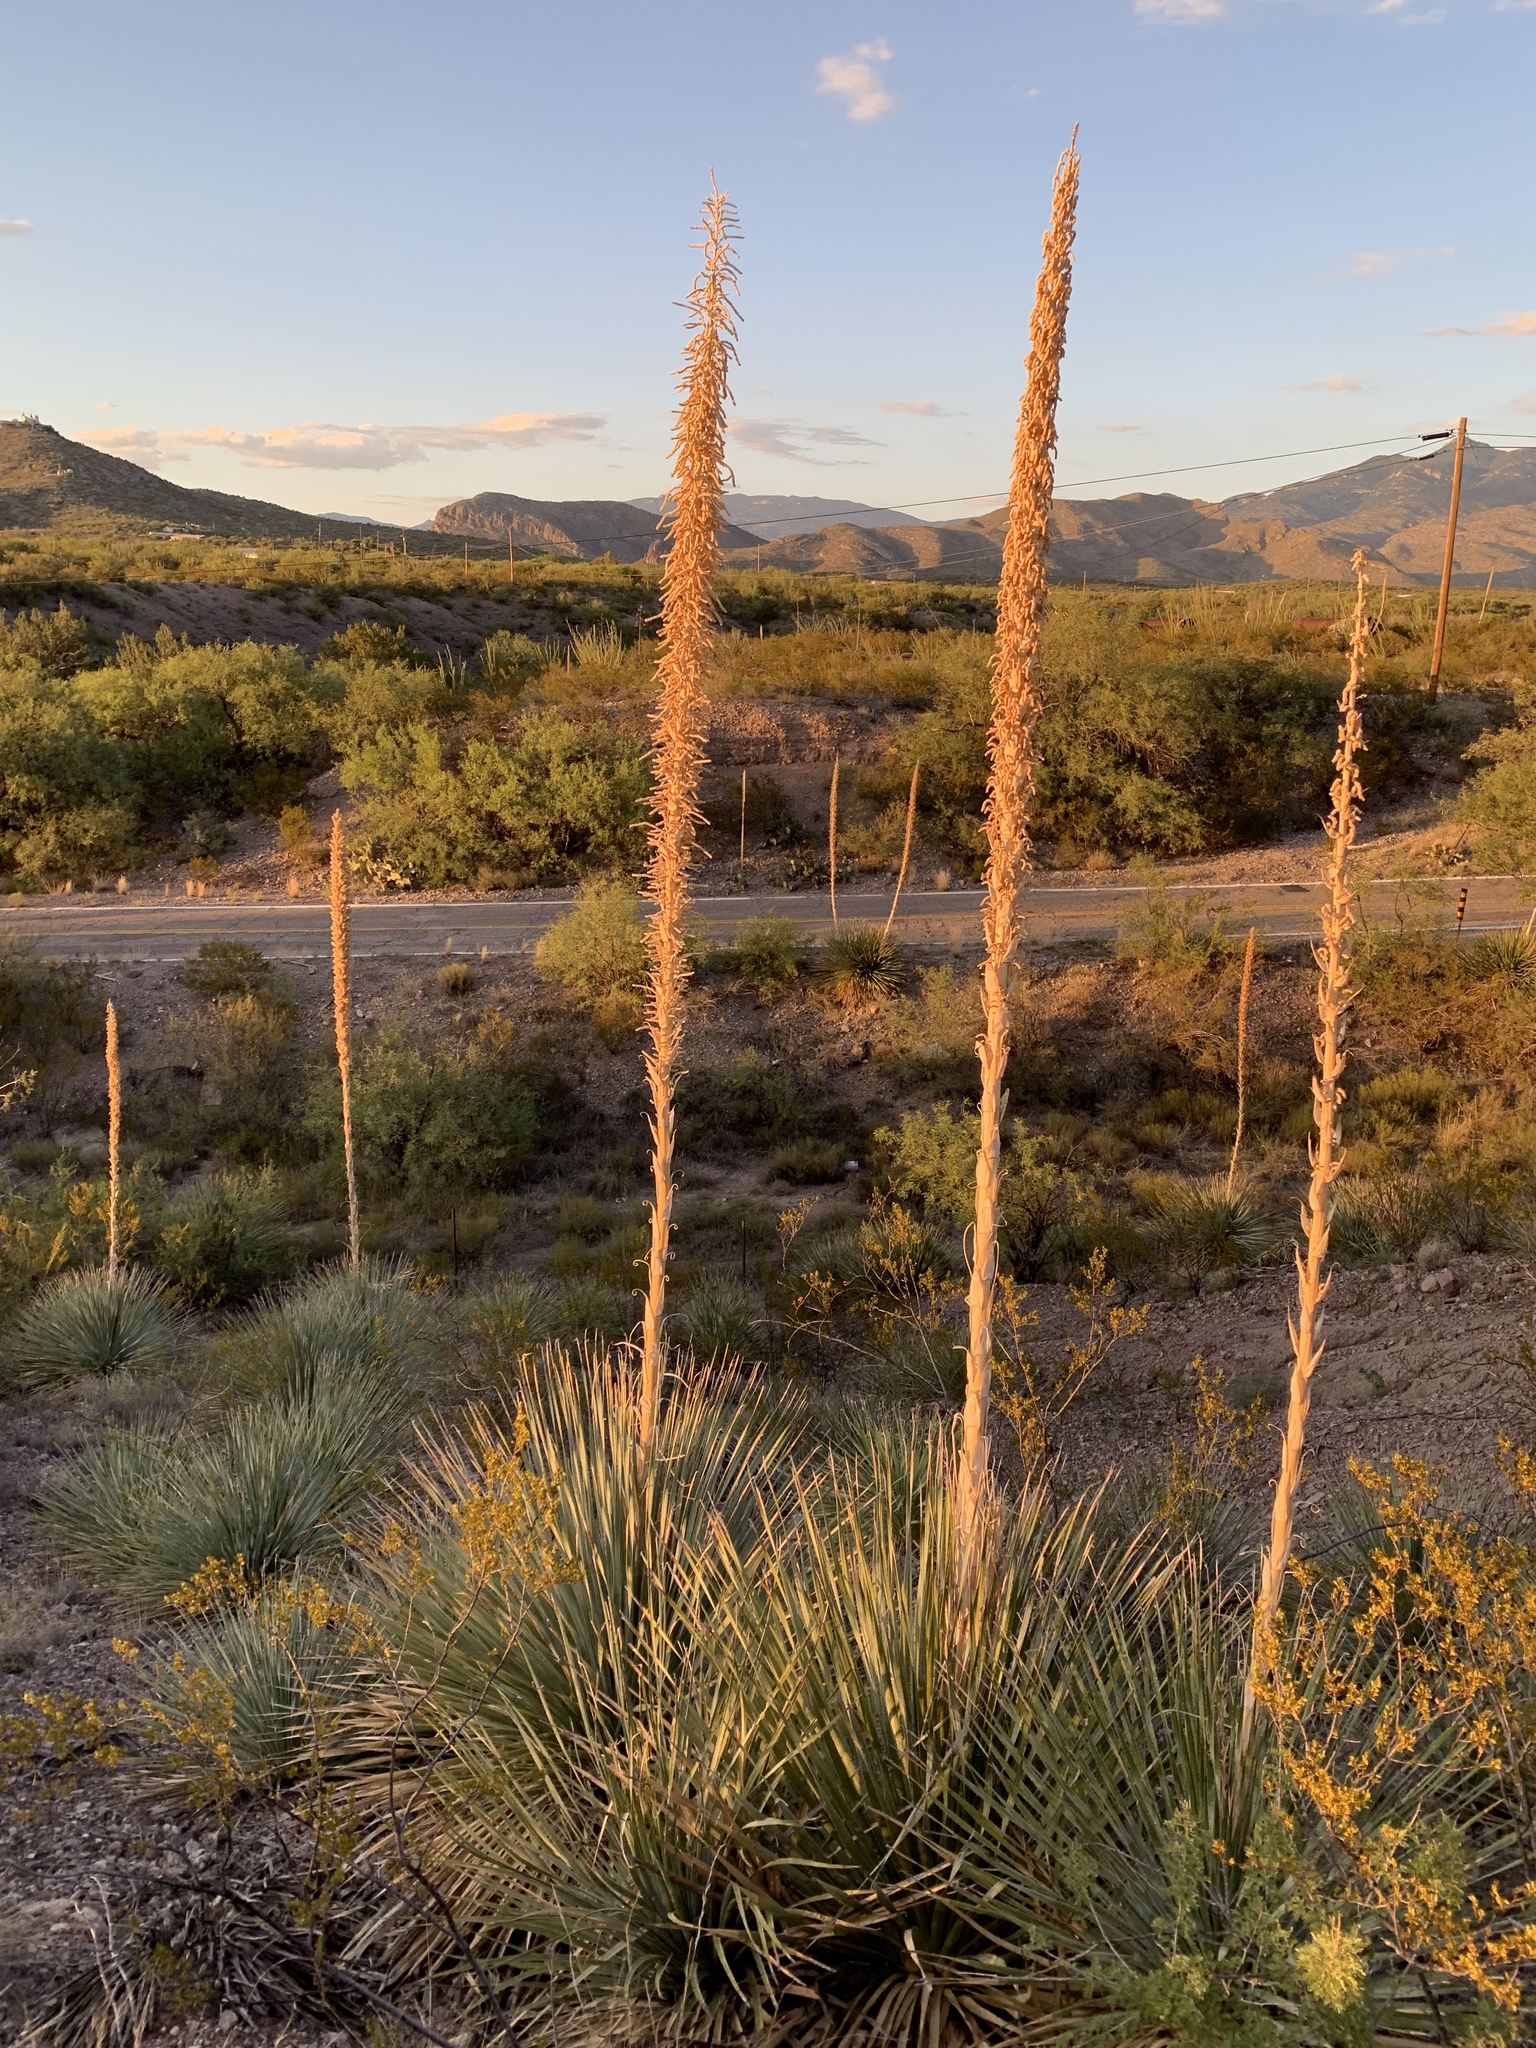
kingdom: Plantae
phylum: Tracheophyta
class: Liliopsida
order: Asparagales
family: Asparagaceae
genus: Dasylirion
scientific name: Dasylirion wheeleri
